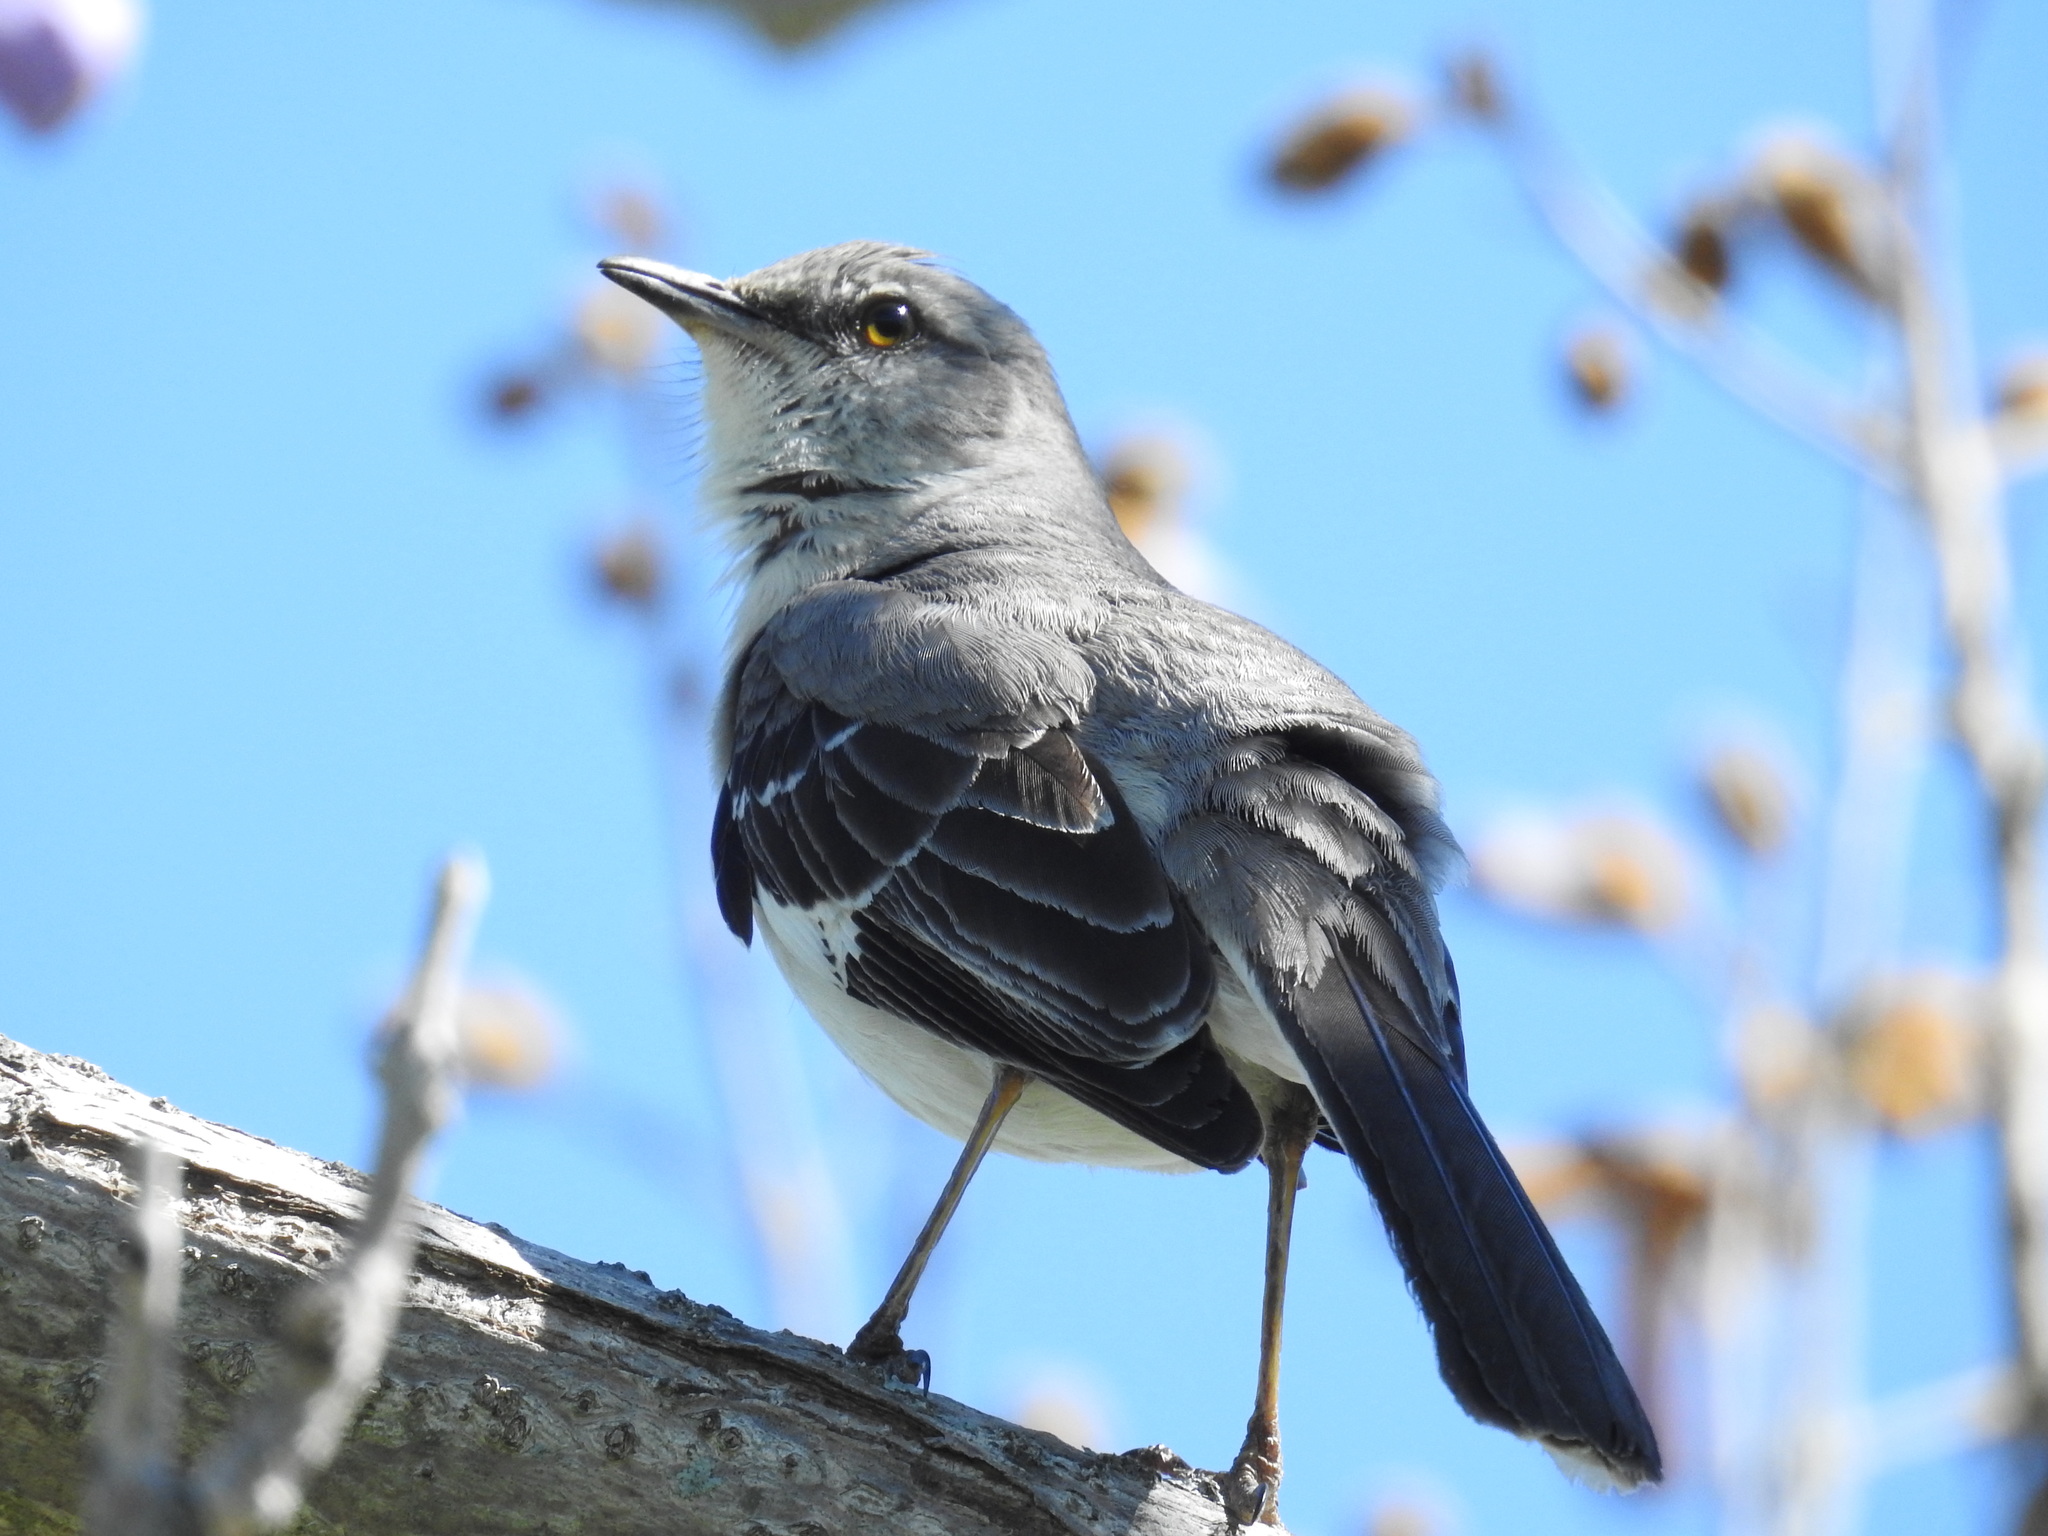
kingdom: Animalia
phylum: Chordata
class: Aves
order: Passeriformes
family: Mimidae
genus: Mimus
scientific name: Mimus polyglottos
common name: Northern mockingbird
